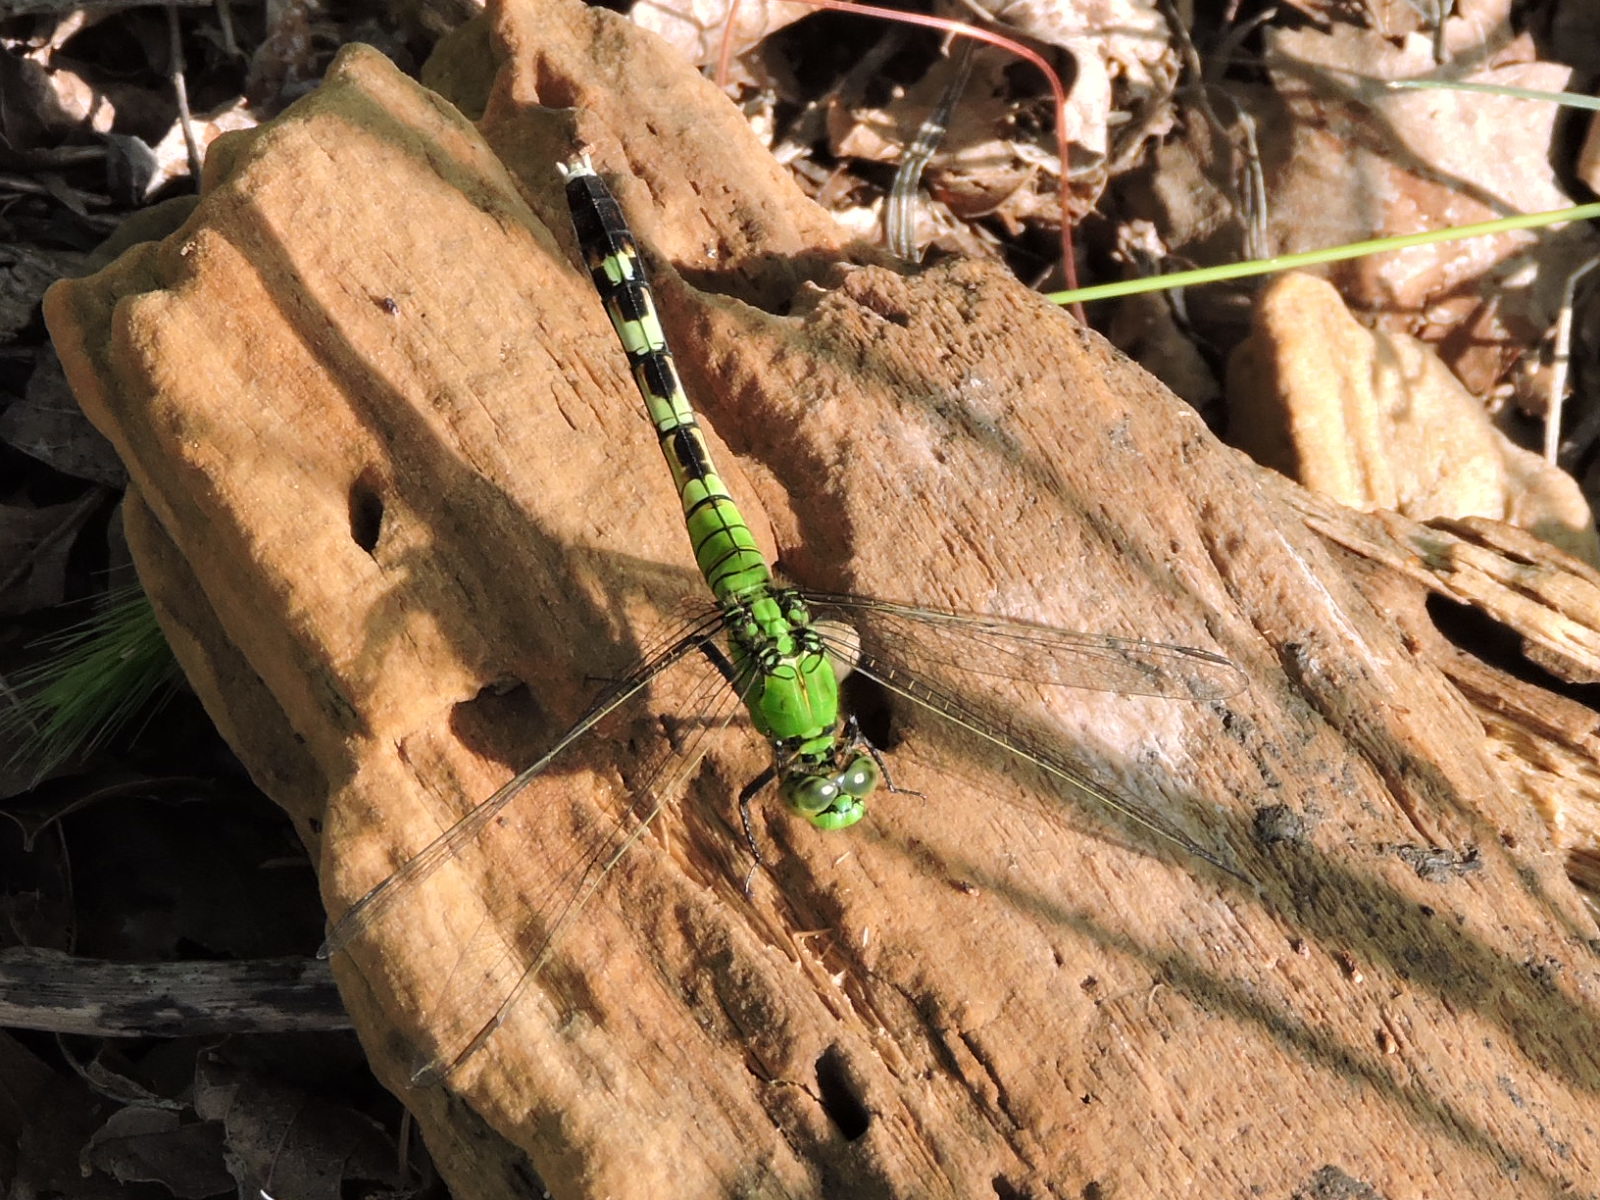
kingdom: Animalia
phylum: Arthropoda
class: Insecta
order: Odonata
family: Libellulidae
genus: Erythemis
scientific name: Erythemis simplicicollis
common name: Eastern pondhawk
